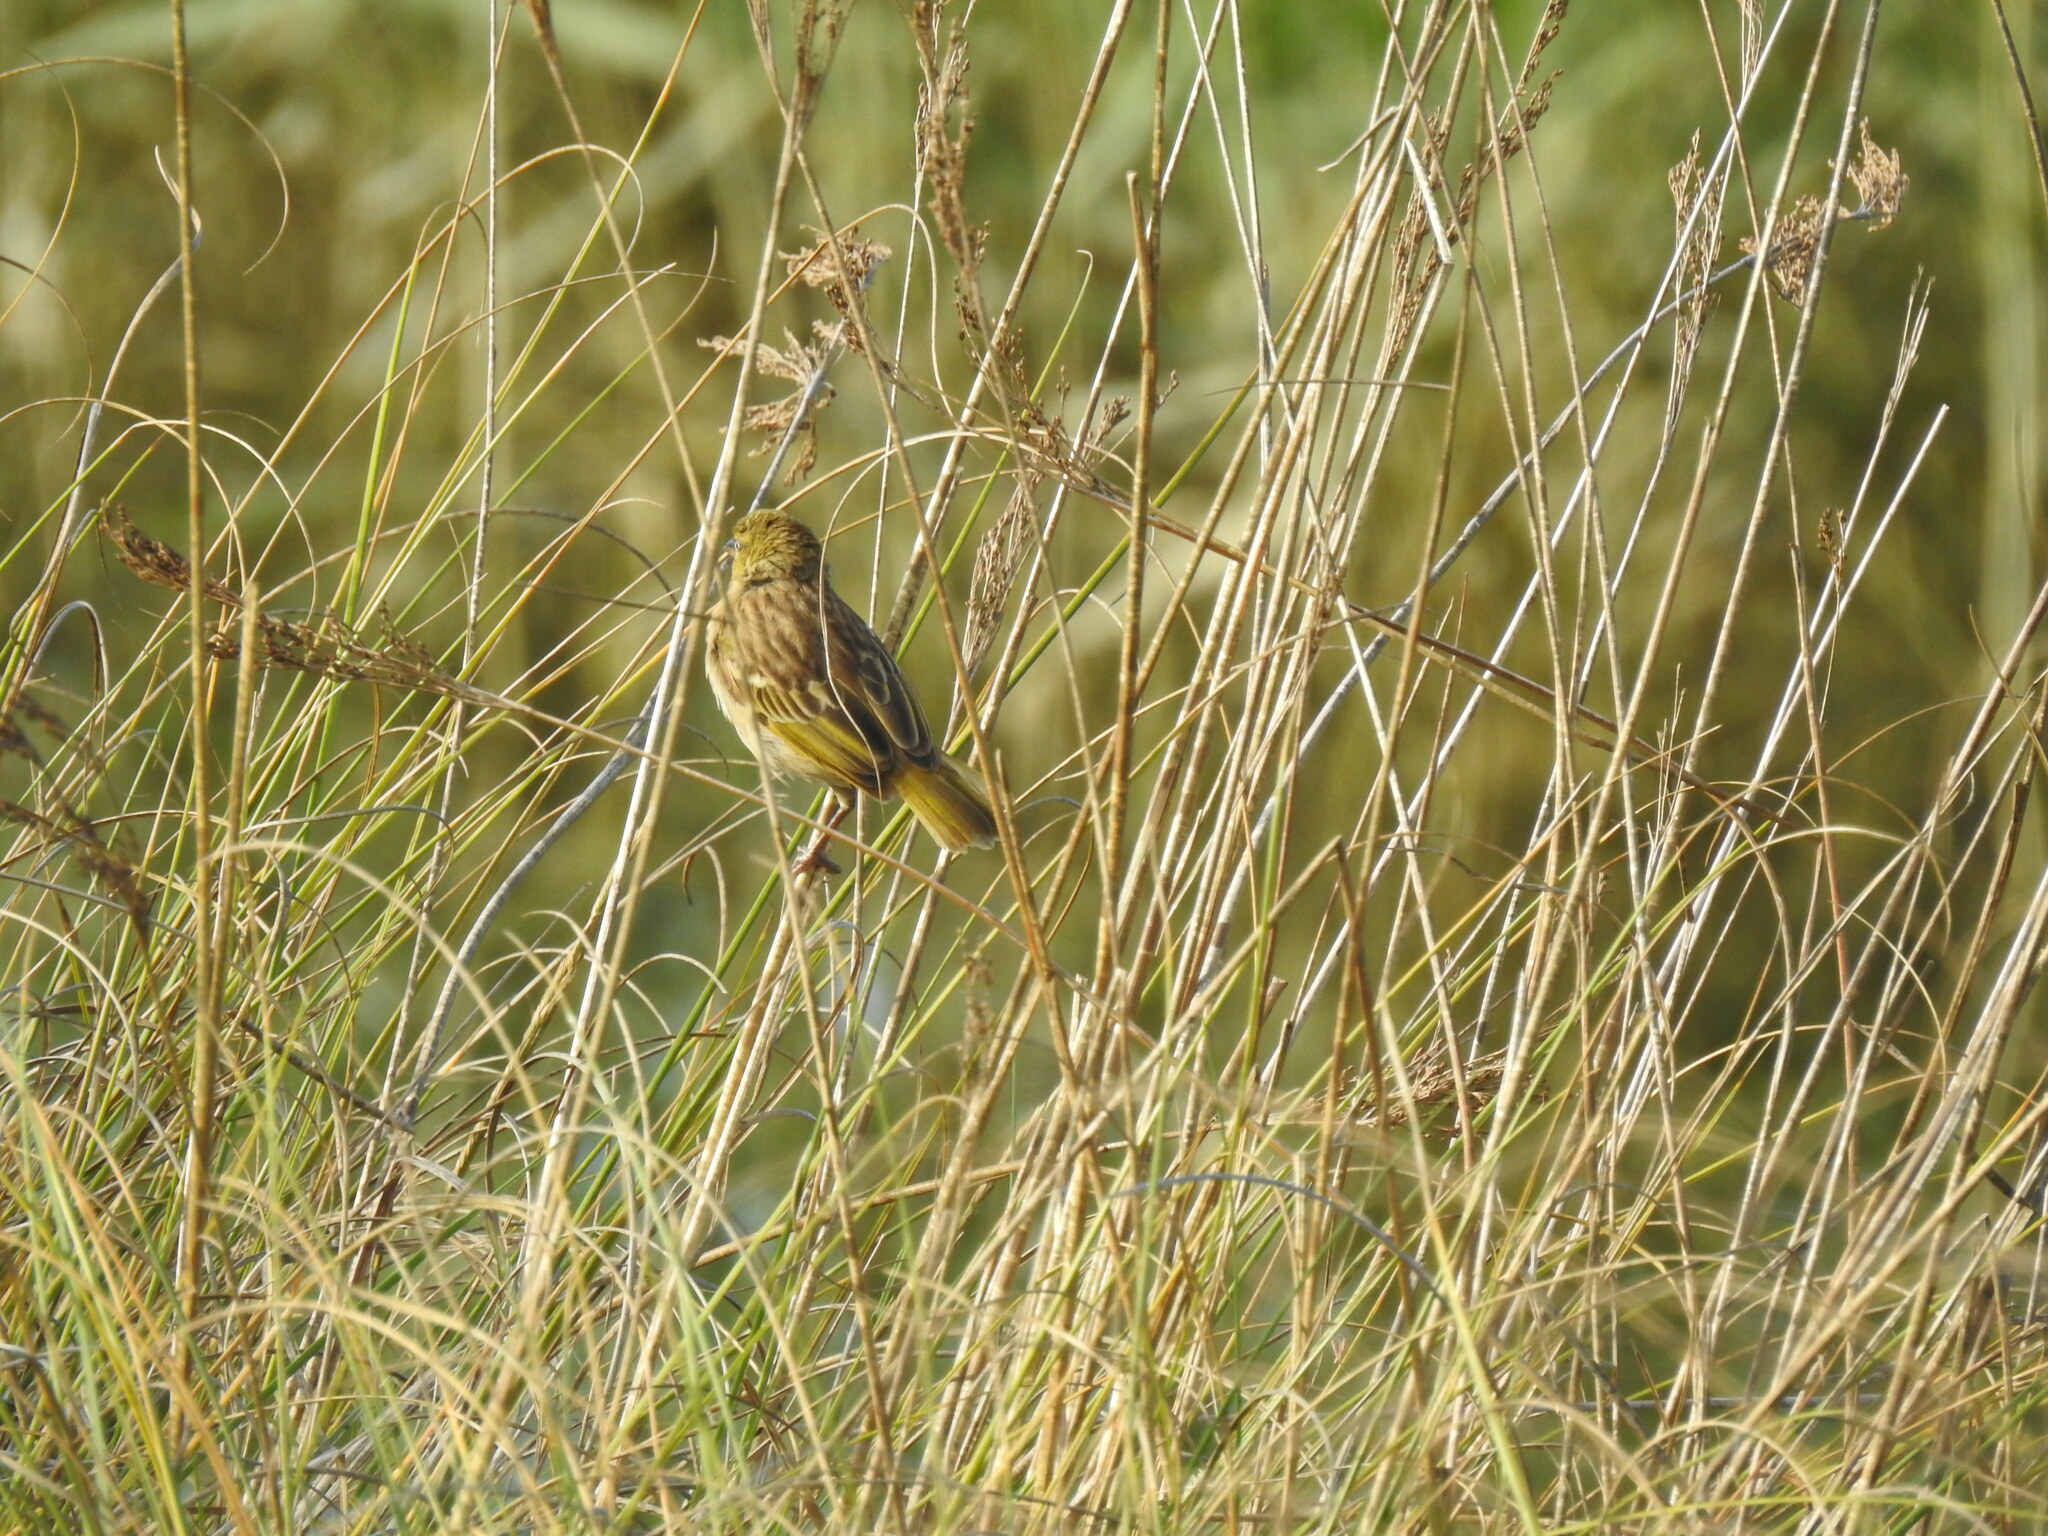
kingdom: Animalia
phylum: Chordata
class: Aves
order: Passeriformes
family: Ploceidae
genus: Ploceus
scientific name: Ploceus melanocephalus
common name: Black-headed weaver
